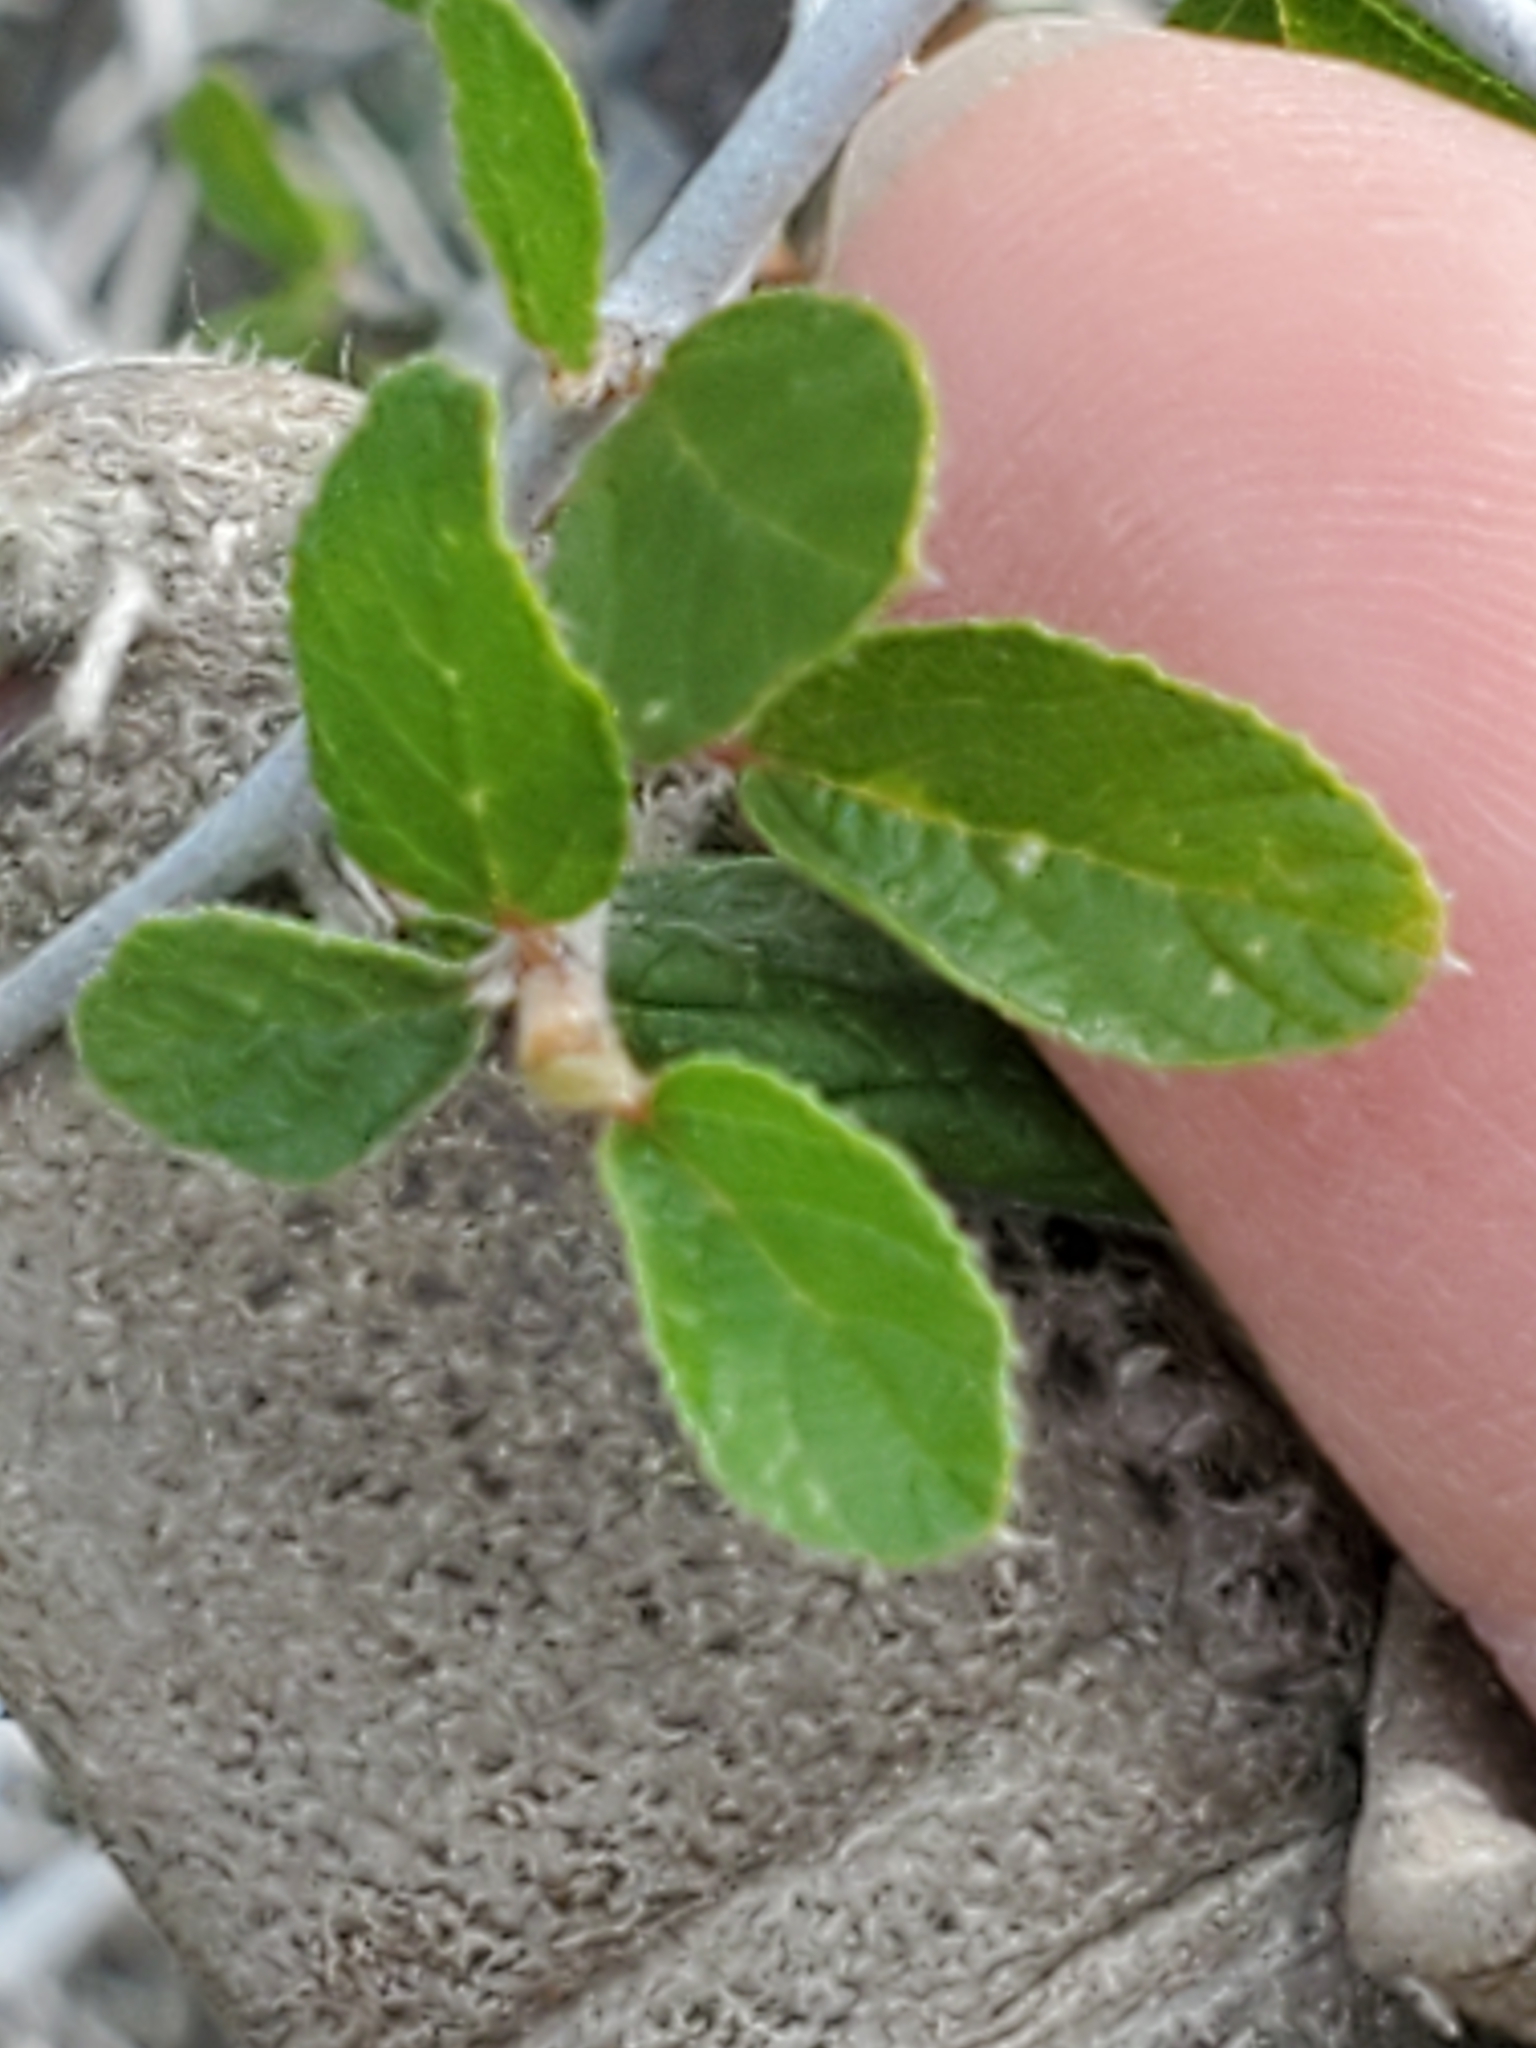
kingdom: Plantae
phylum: Tracheophyta
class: Magnoliopsida
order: Rosales
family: Rhamnaceae
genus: Colubrina
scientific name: Colubrina texensis
